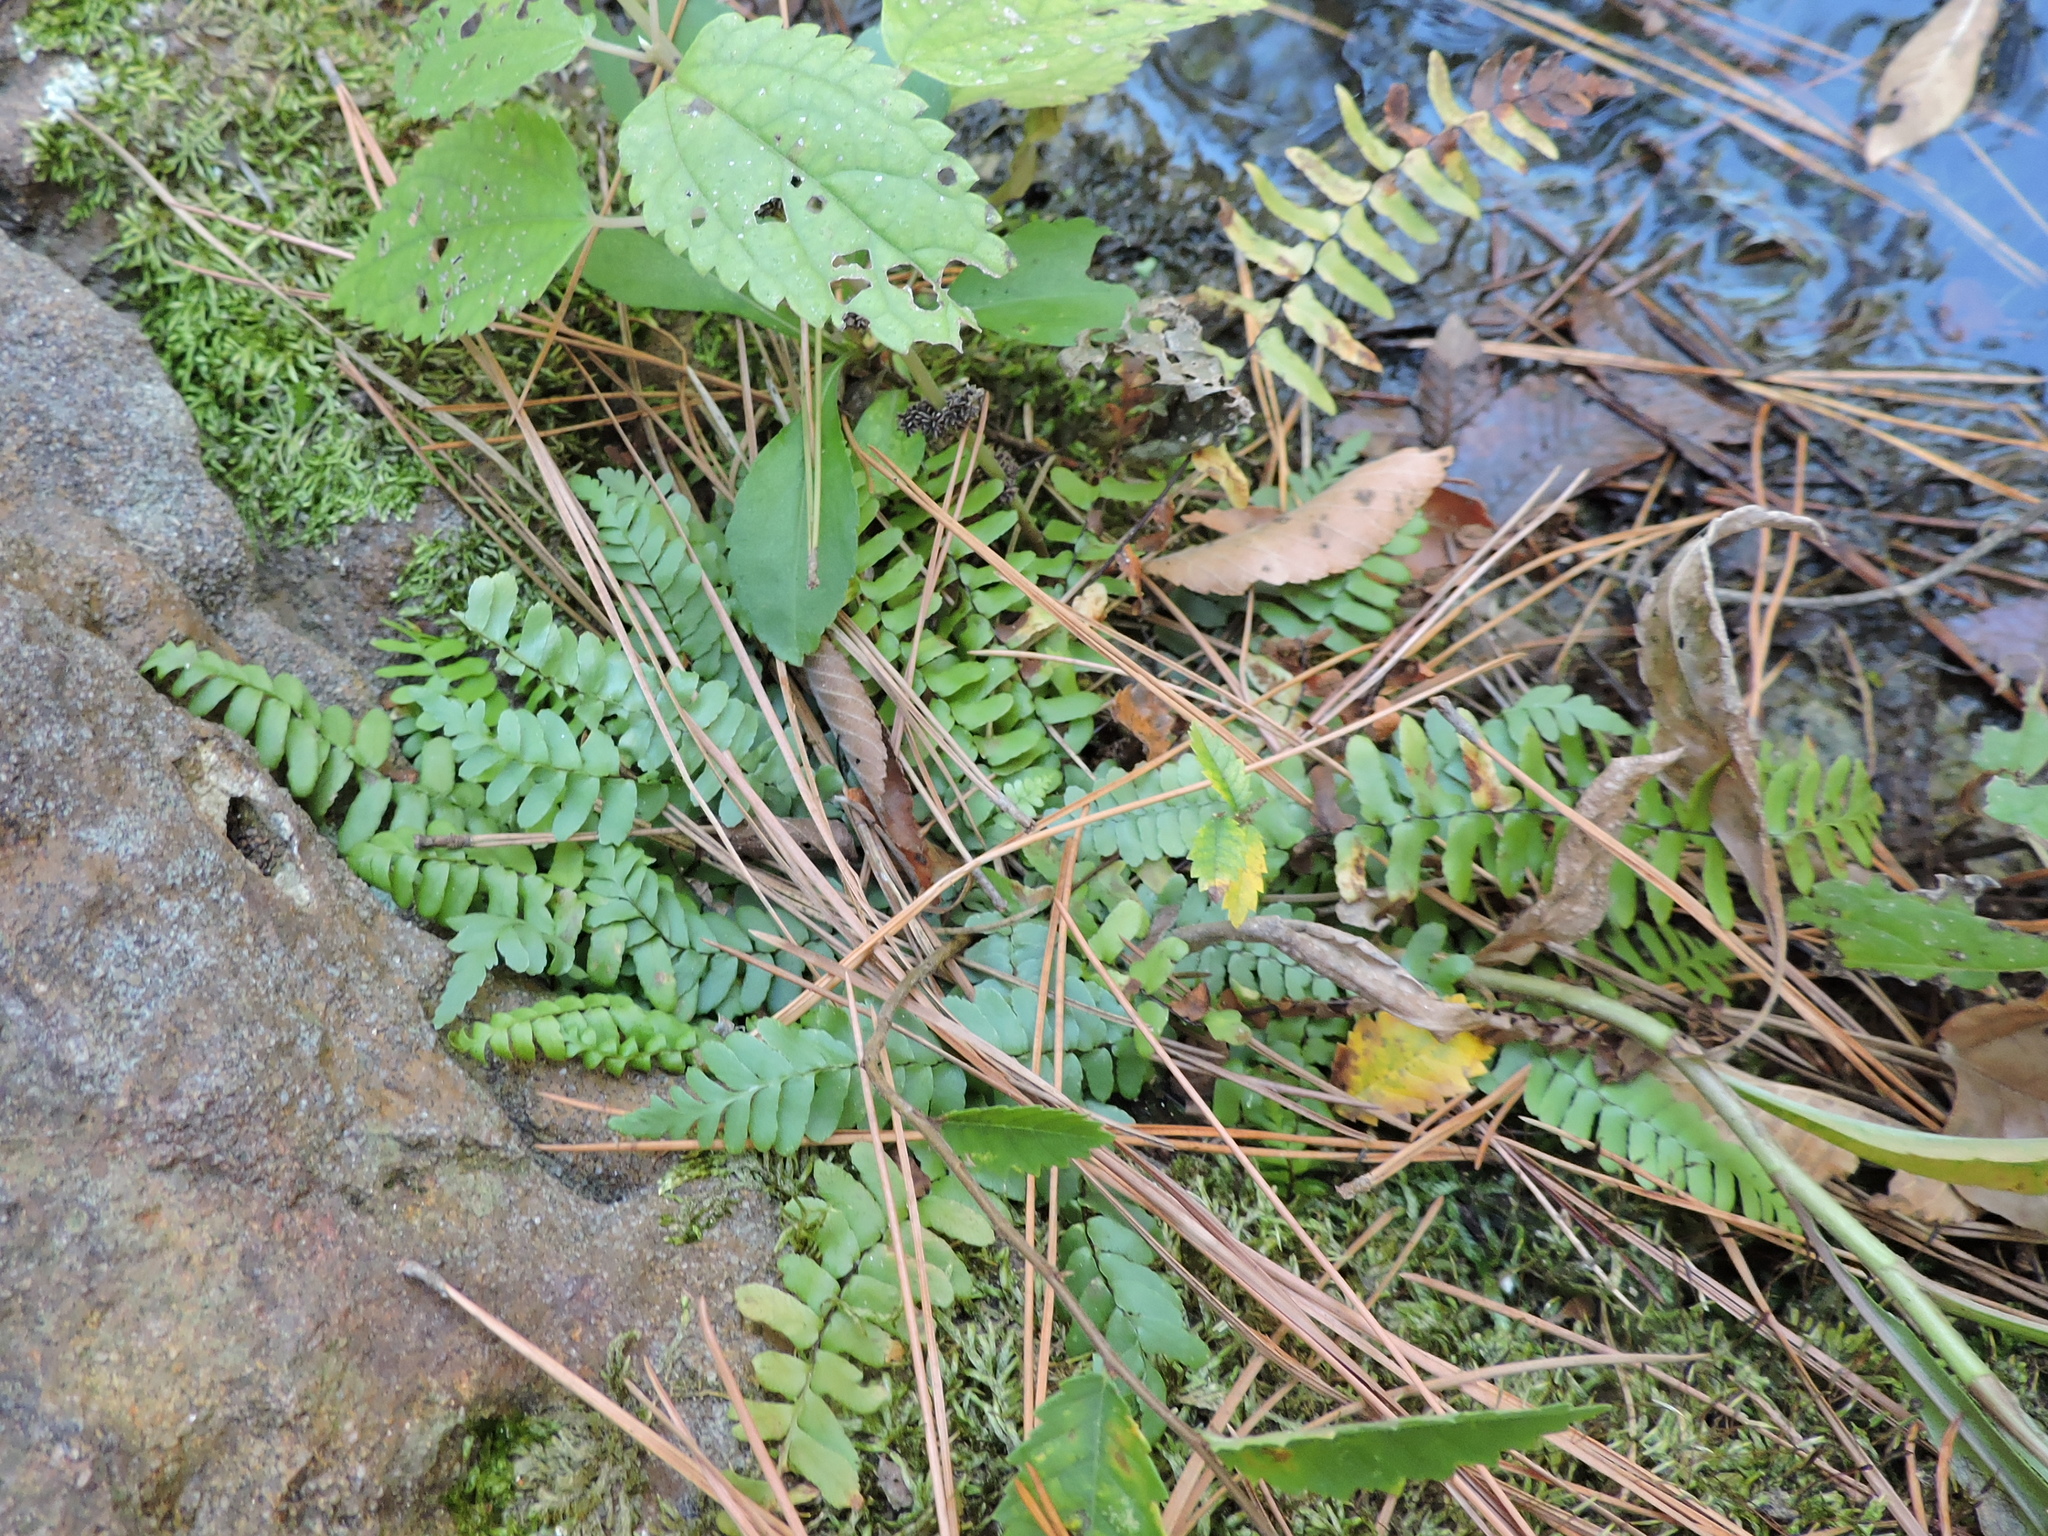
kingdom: Plantae
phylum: Tracheophyta
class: Polypodiopsida
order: Polypodiales
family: Aspleniaceae
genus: Asplenium
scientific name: Asplenium platyneuron
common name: Ebony spleenwort
